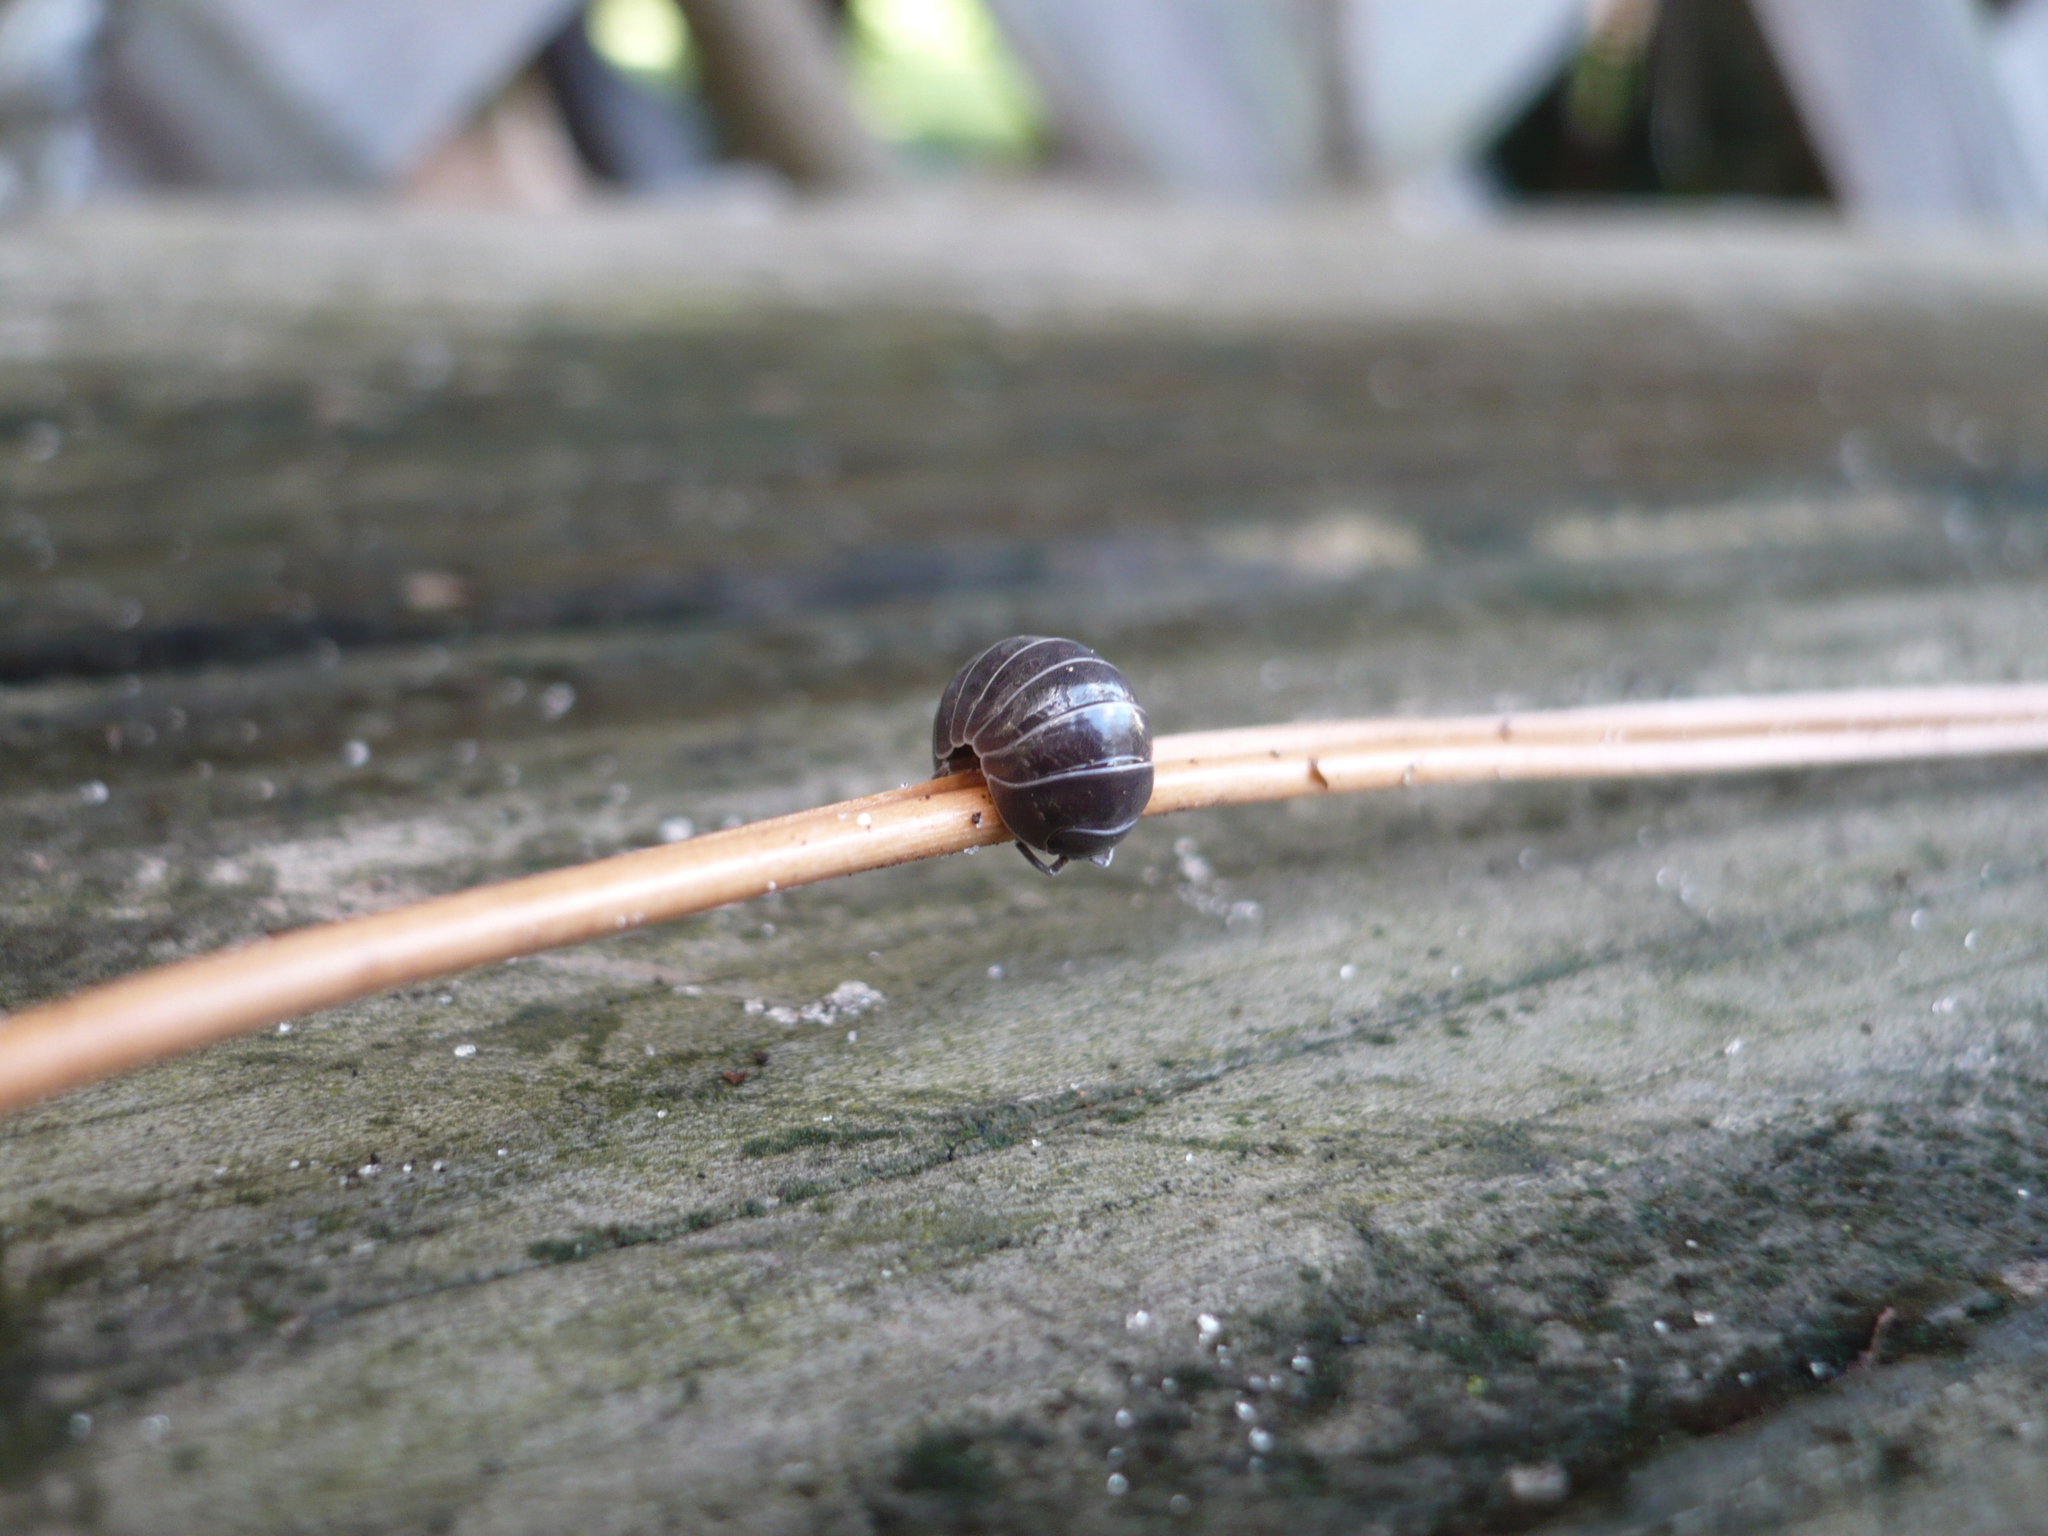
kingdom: Animalia
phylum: Arthropoda
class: Malacostraca
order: Isopoda
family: Armadillidiidae
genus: Armadillidium
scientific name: Armadillidium vulgare
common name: Common pill woodlouse
